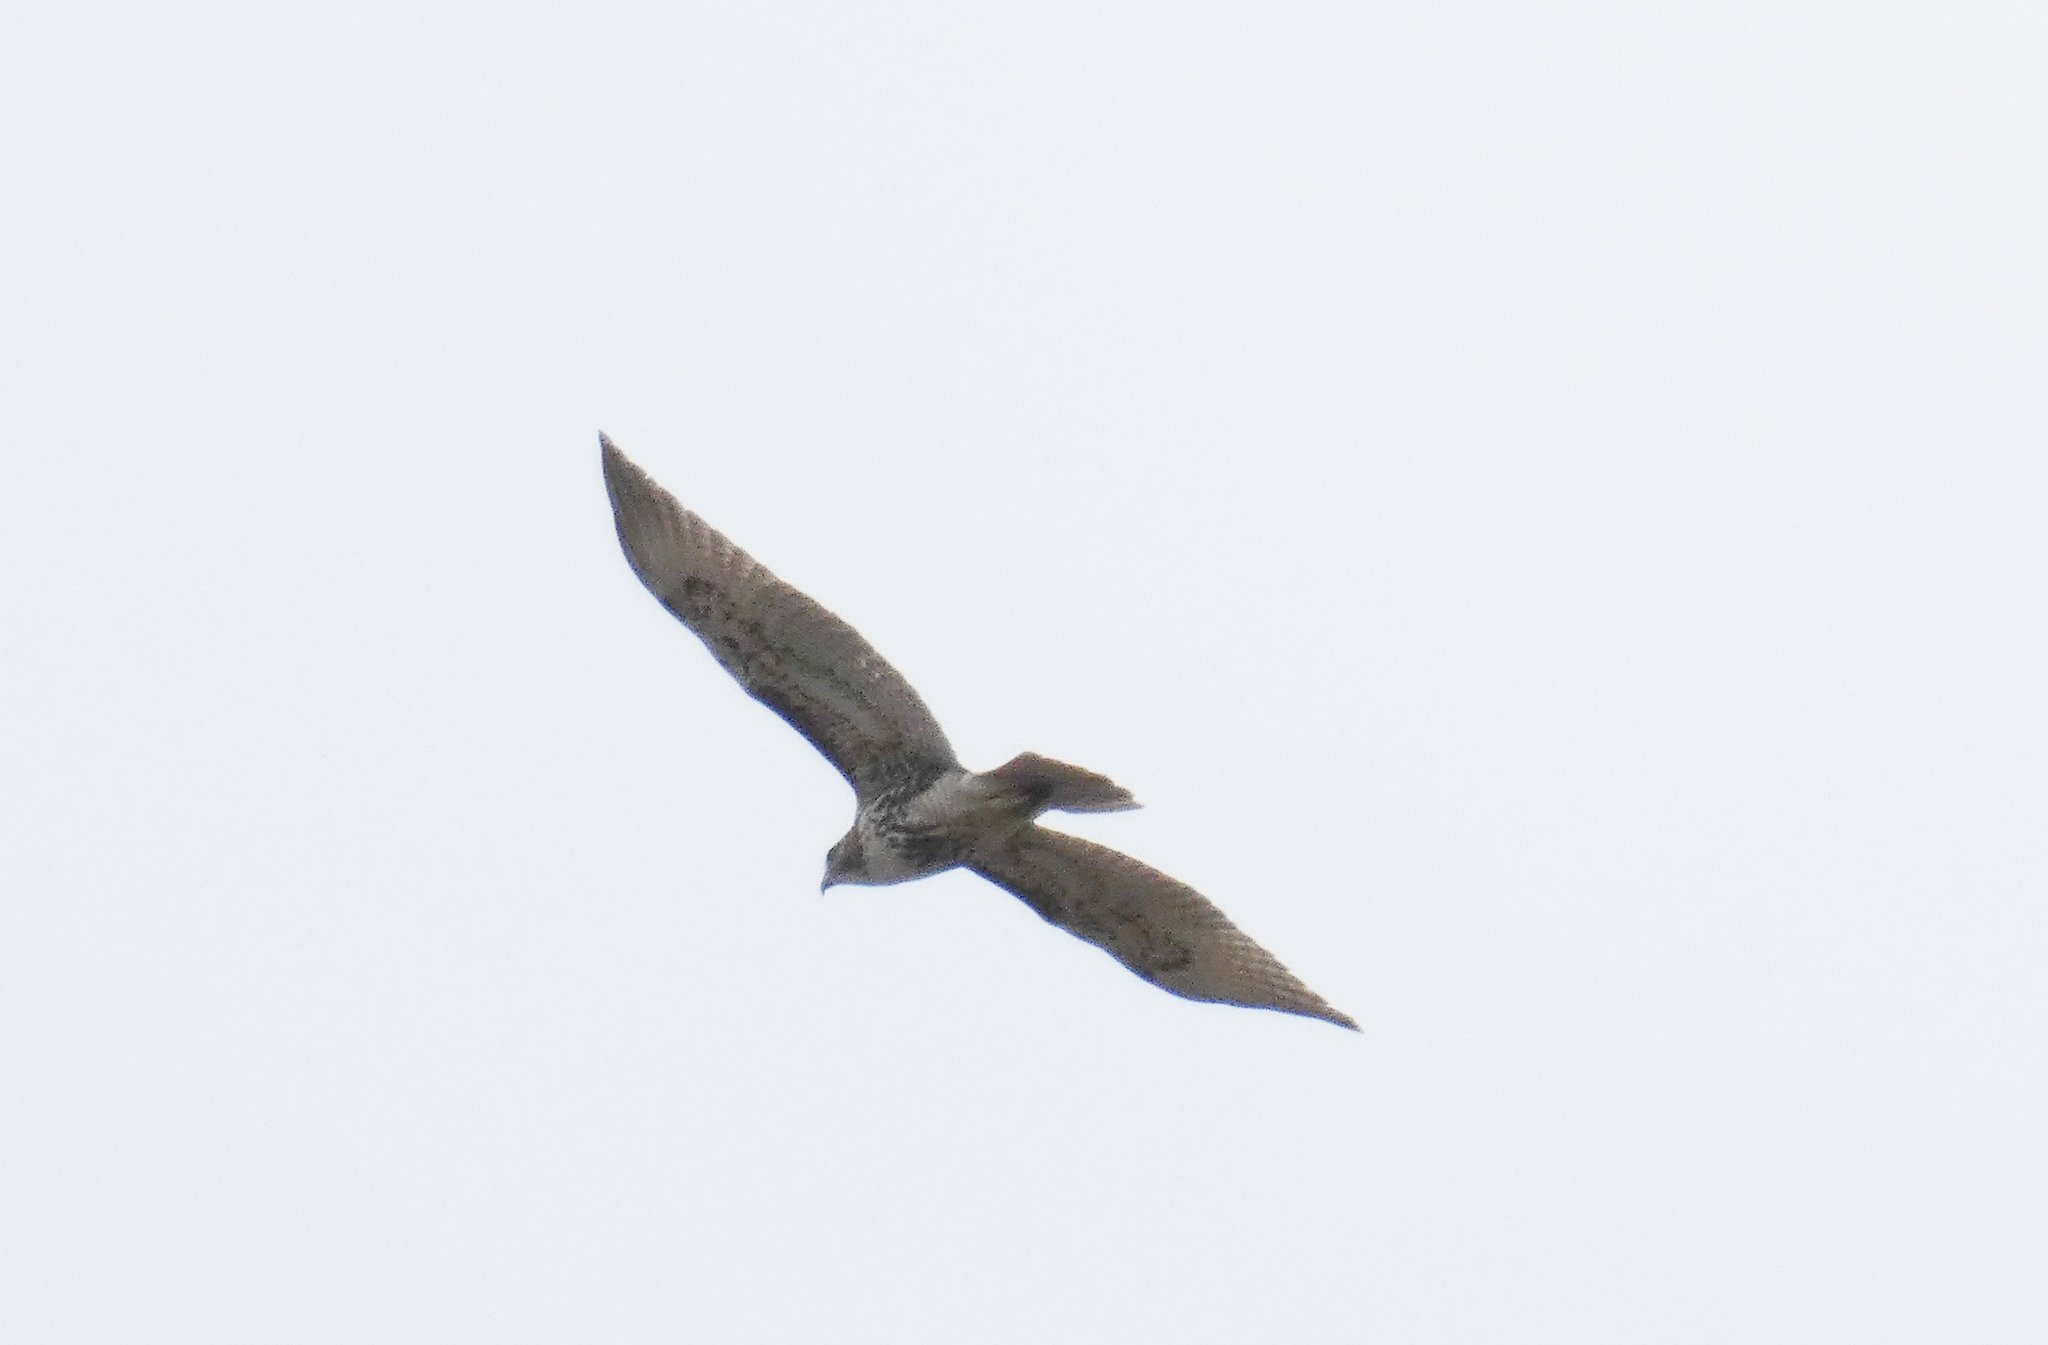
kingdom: Animalia
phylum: Chordata
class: Aves
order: Accipitriformes
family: Accipitridae
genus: Buteo
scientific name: Buteo jamaicensis
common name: Red-tailed hawk
